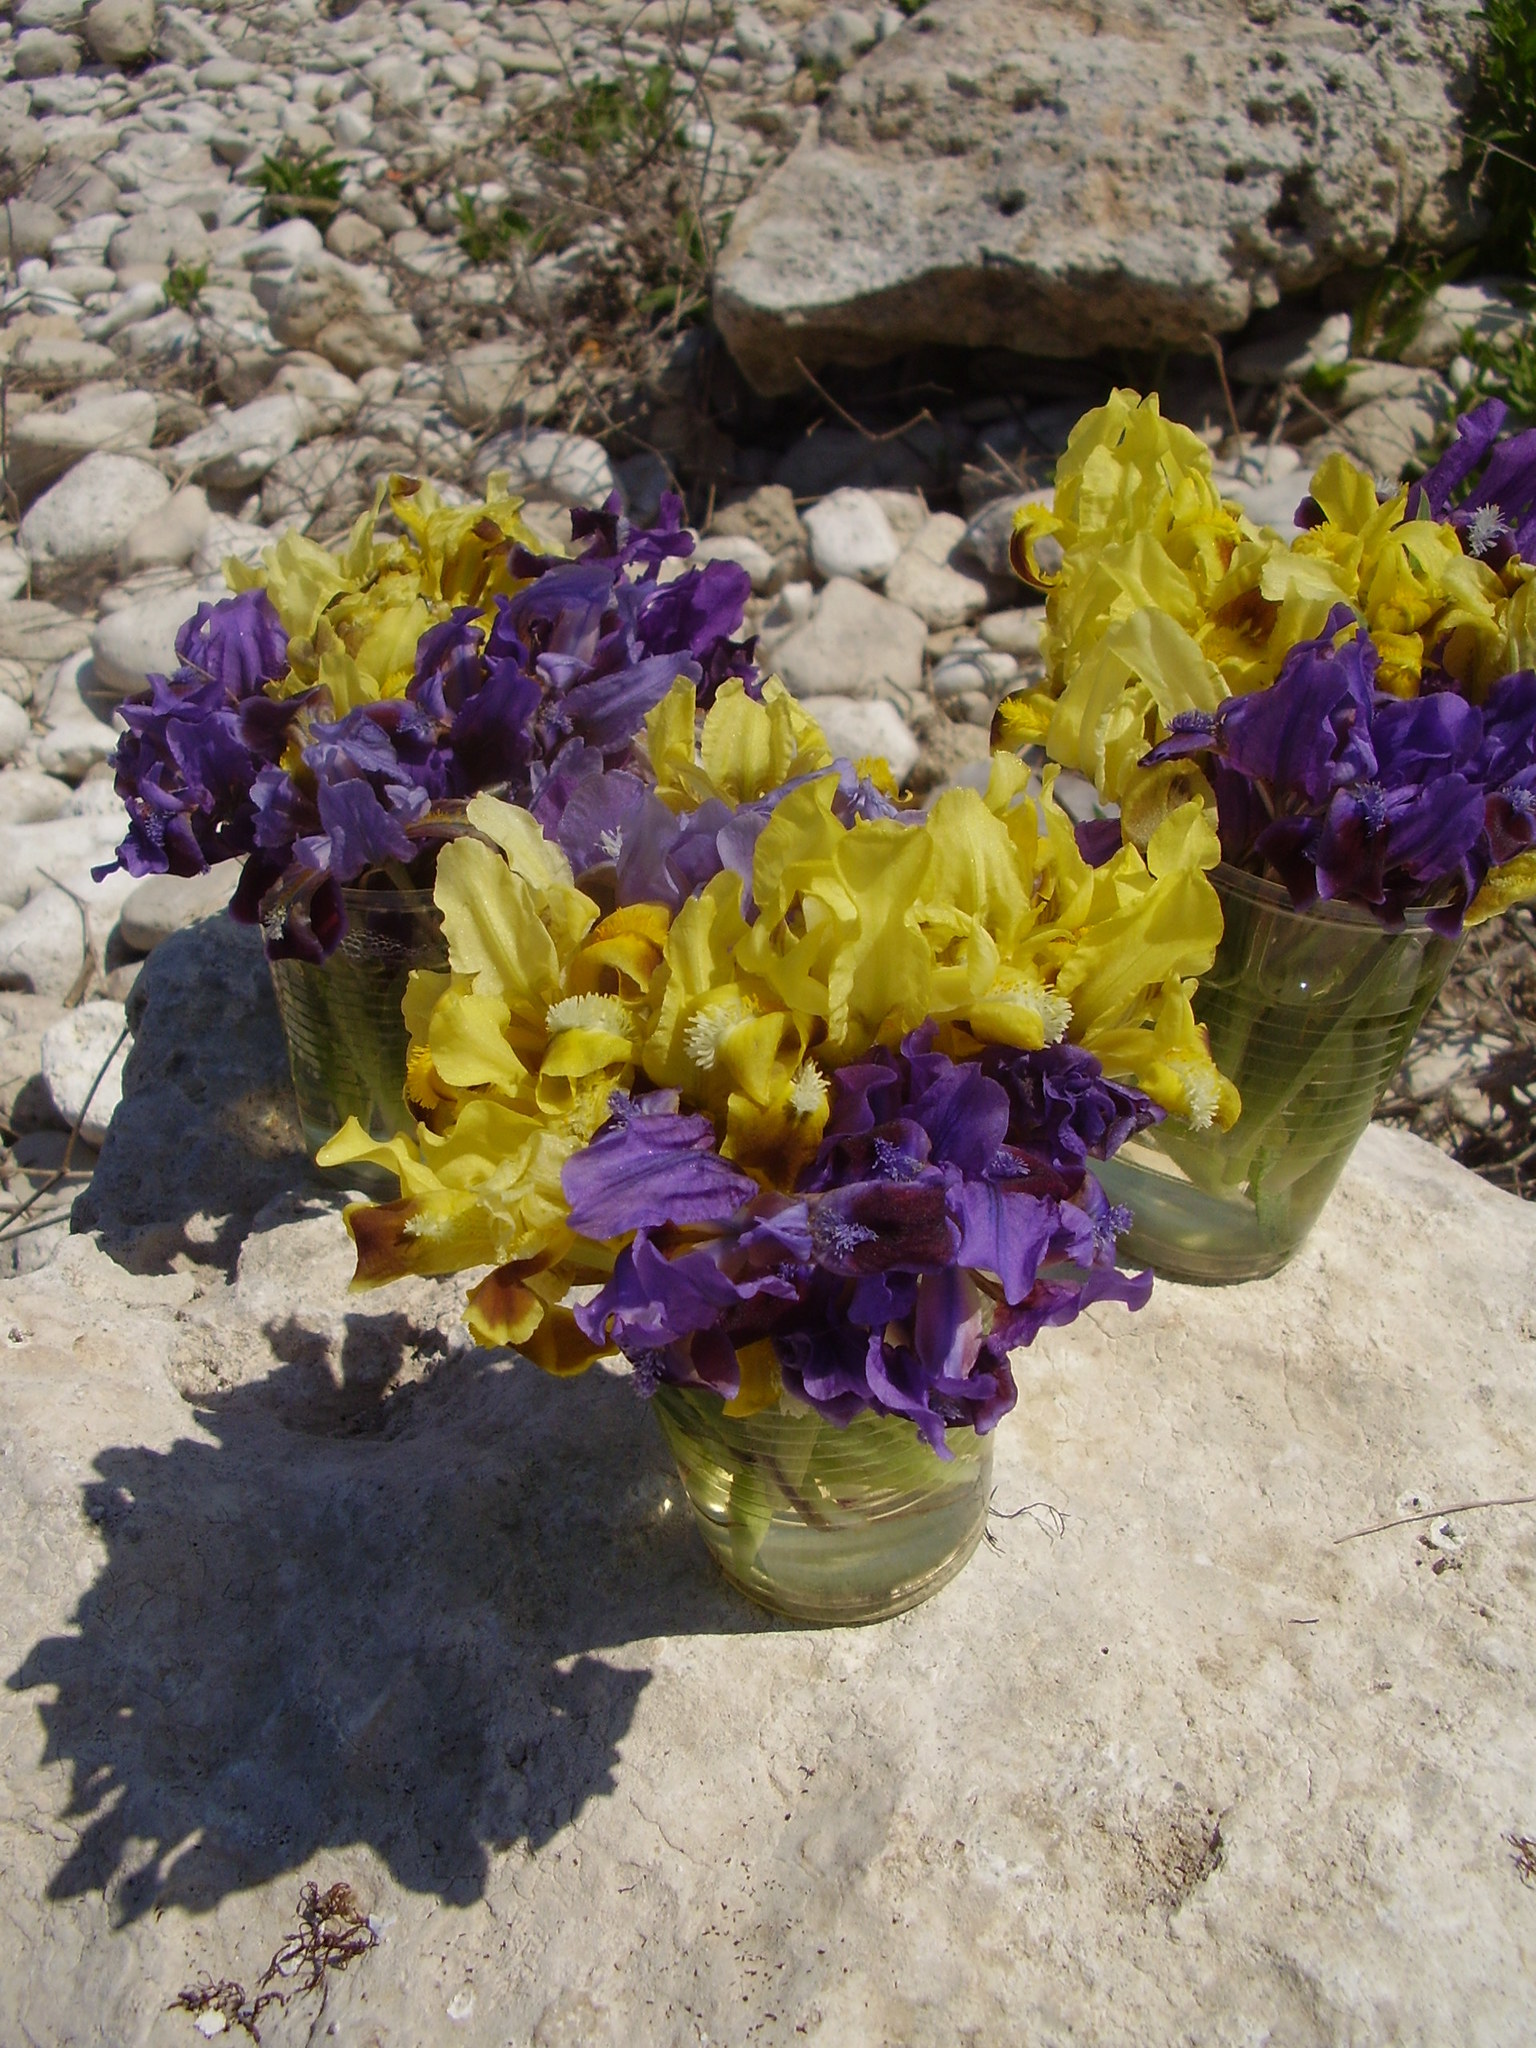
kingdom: Plantae
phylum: Tracheophyta
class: Liliopsida
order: Asparagales
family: Iridaceae
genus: Iris
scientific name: Iris pumila
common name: Dwarf iris
